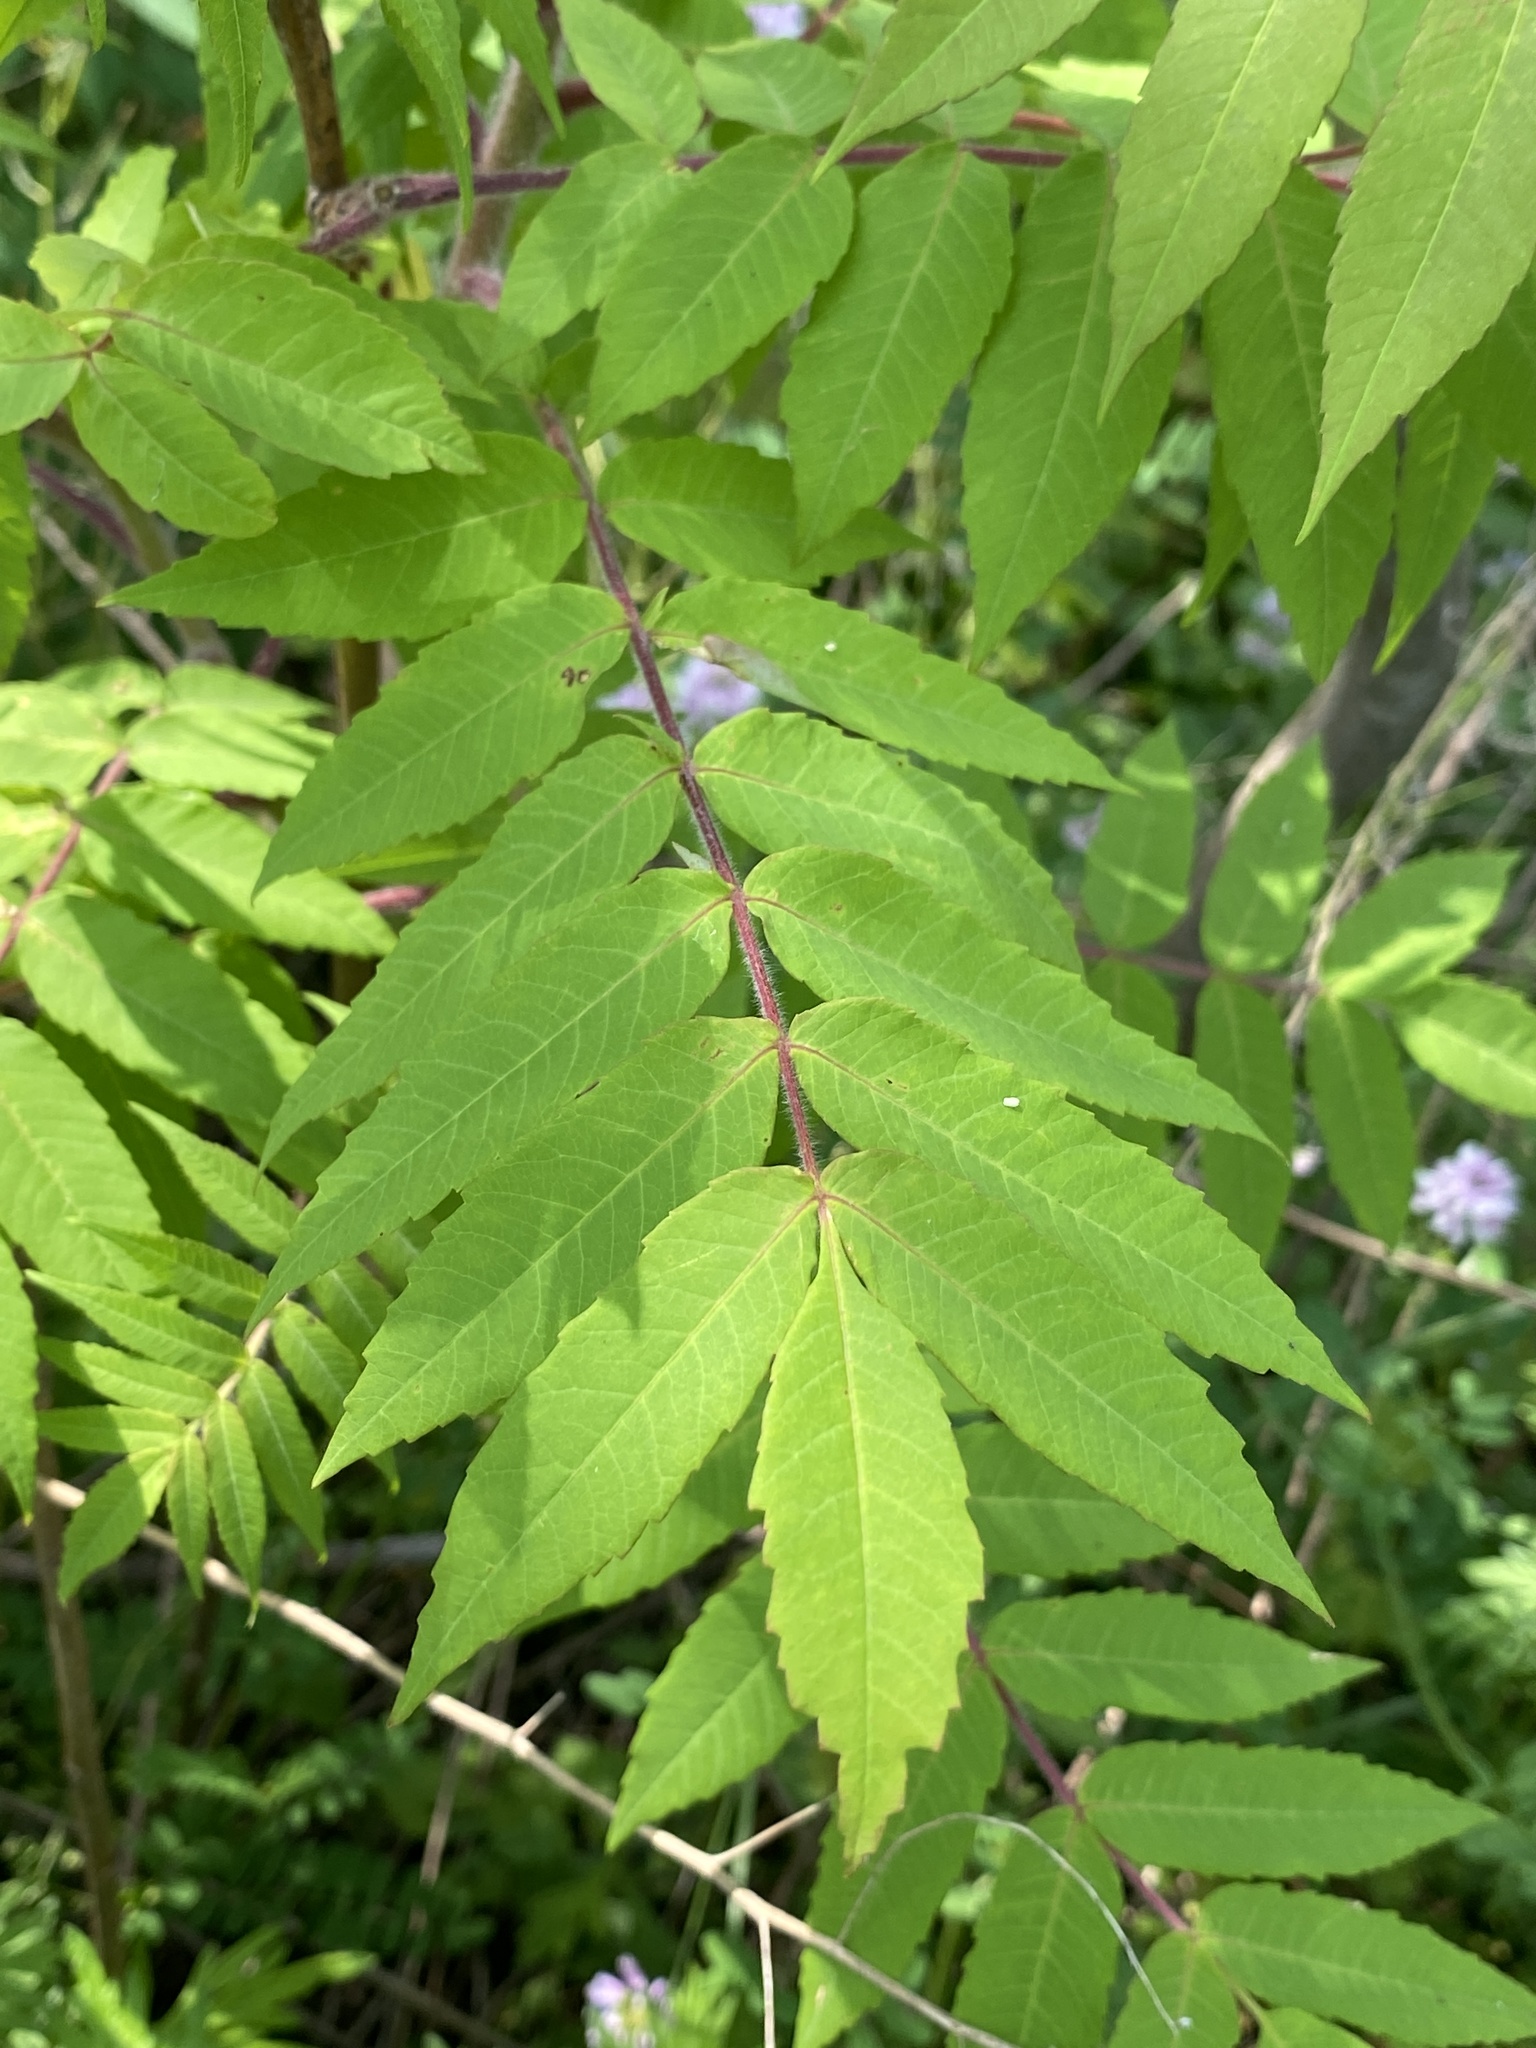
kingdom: Plantae
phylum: Tracheophyta
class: Magnoliopsida
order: Sapindales
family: Anacardiaceae
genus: Rhus
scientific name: Rhus typhina
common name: Staghorn sumac
